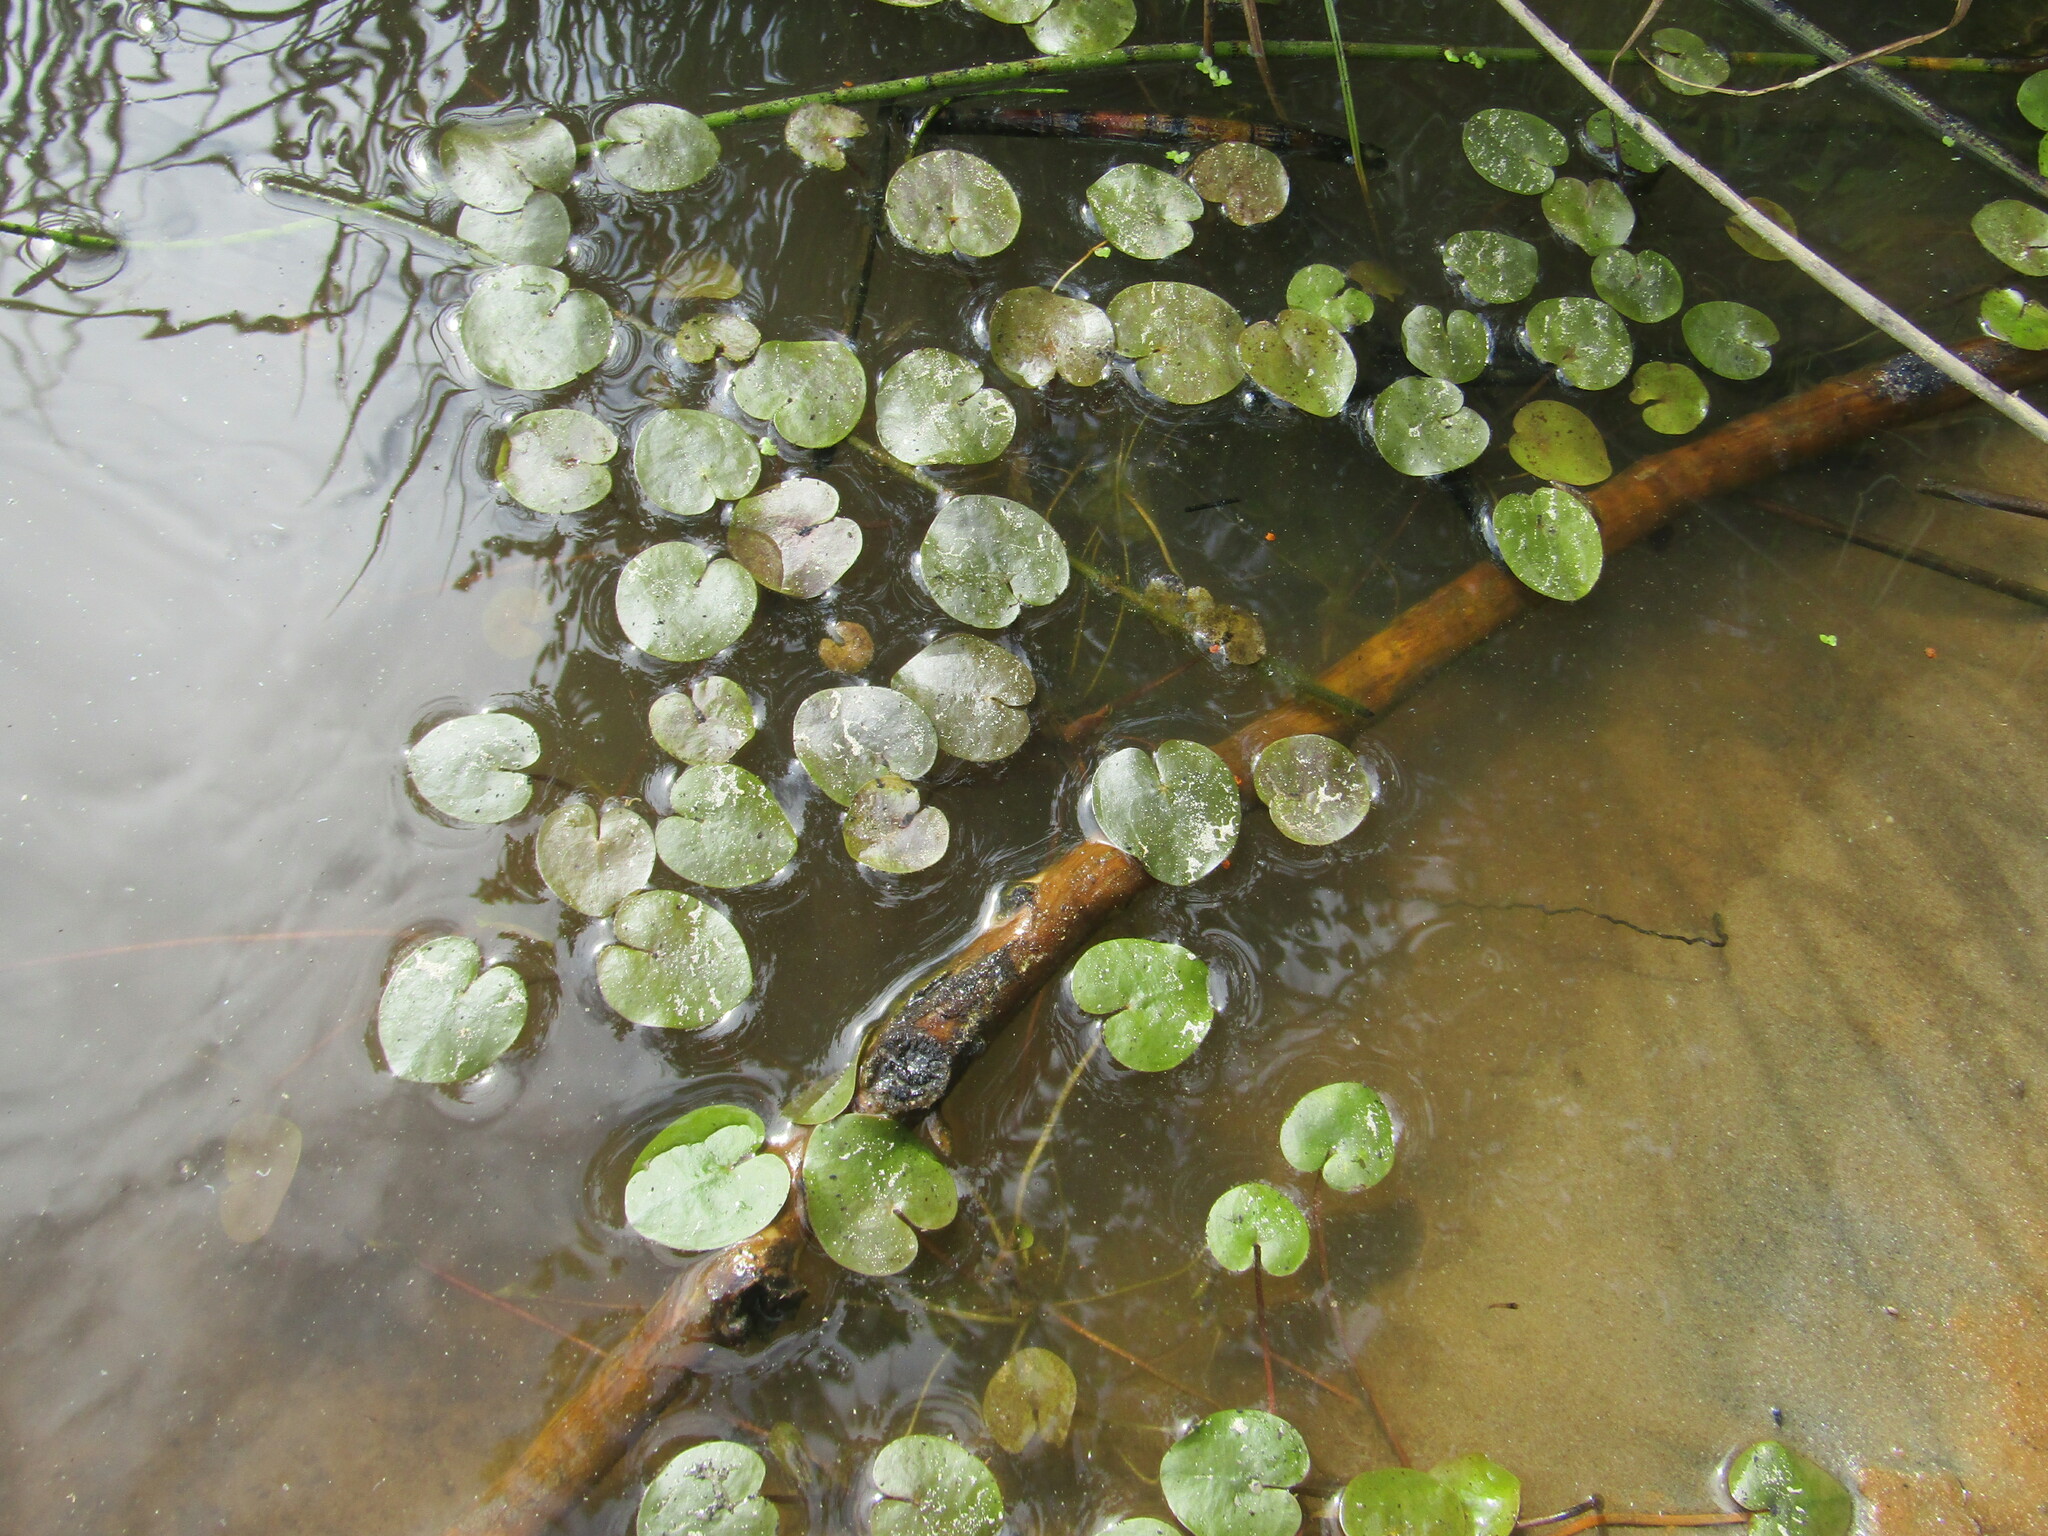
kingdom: Plantae
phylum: Tracheophyta
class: Liliopsida
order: Alismatales
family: Hydrocharitaceae
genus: Hydrocharis
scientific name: Hydrocharis morsus-ranae
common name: Frogbit
